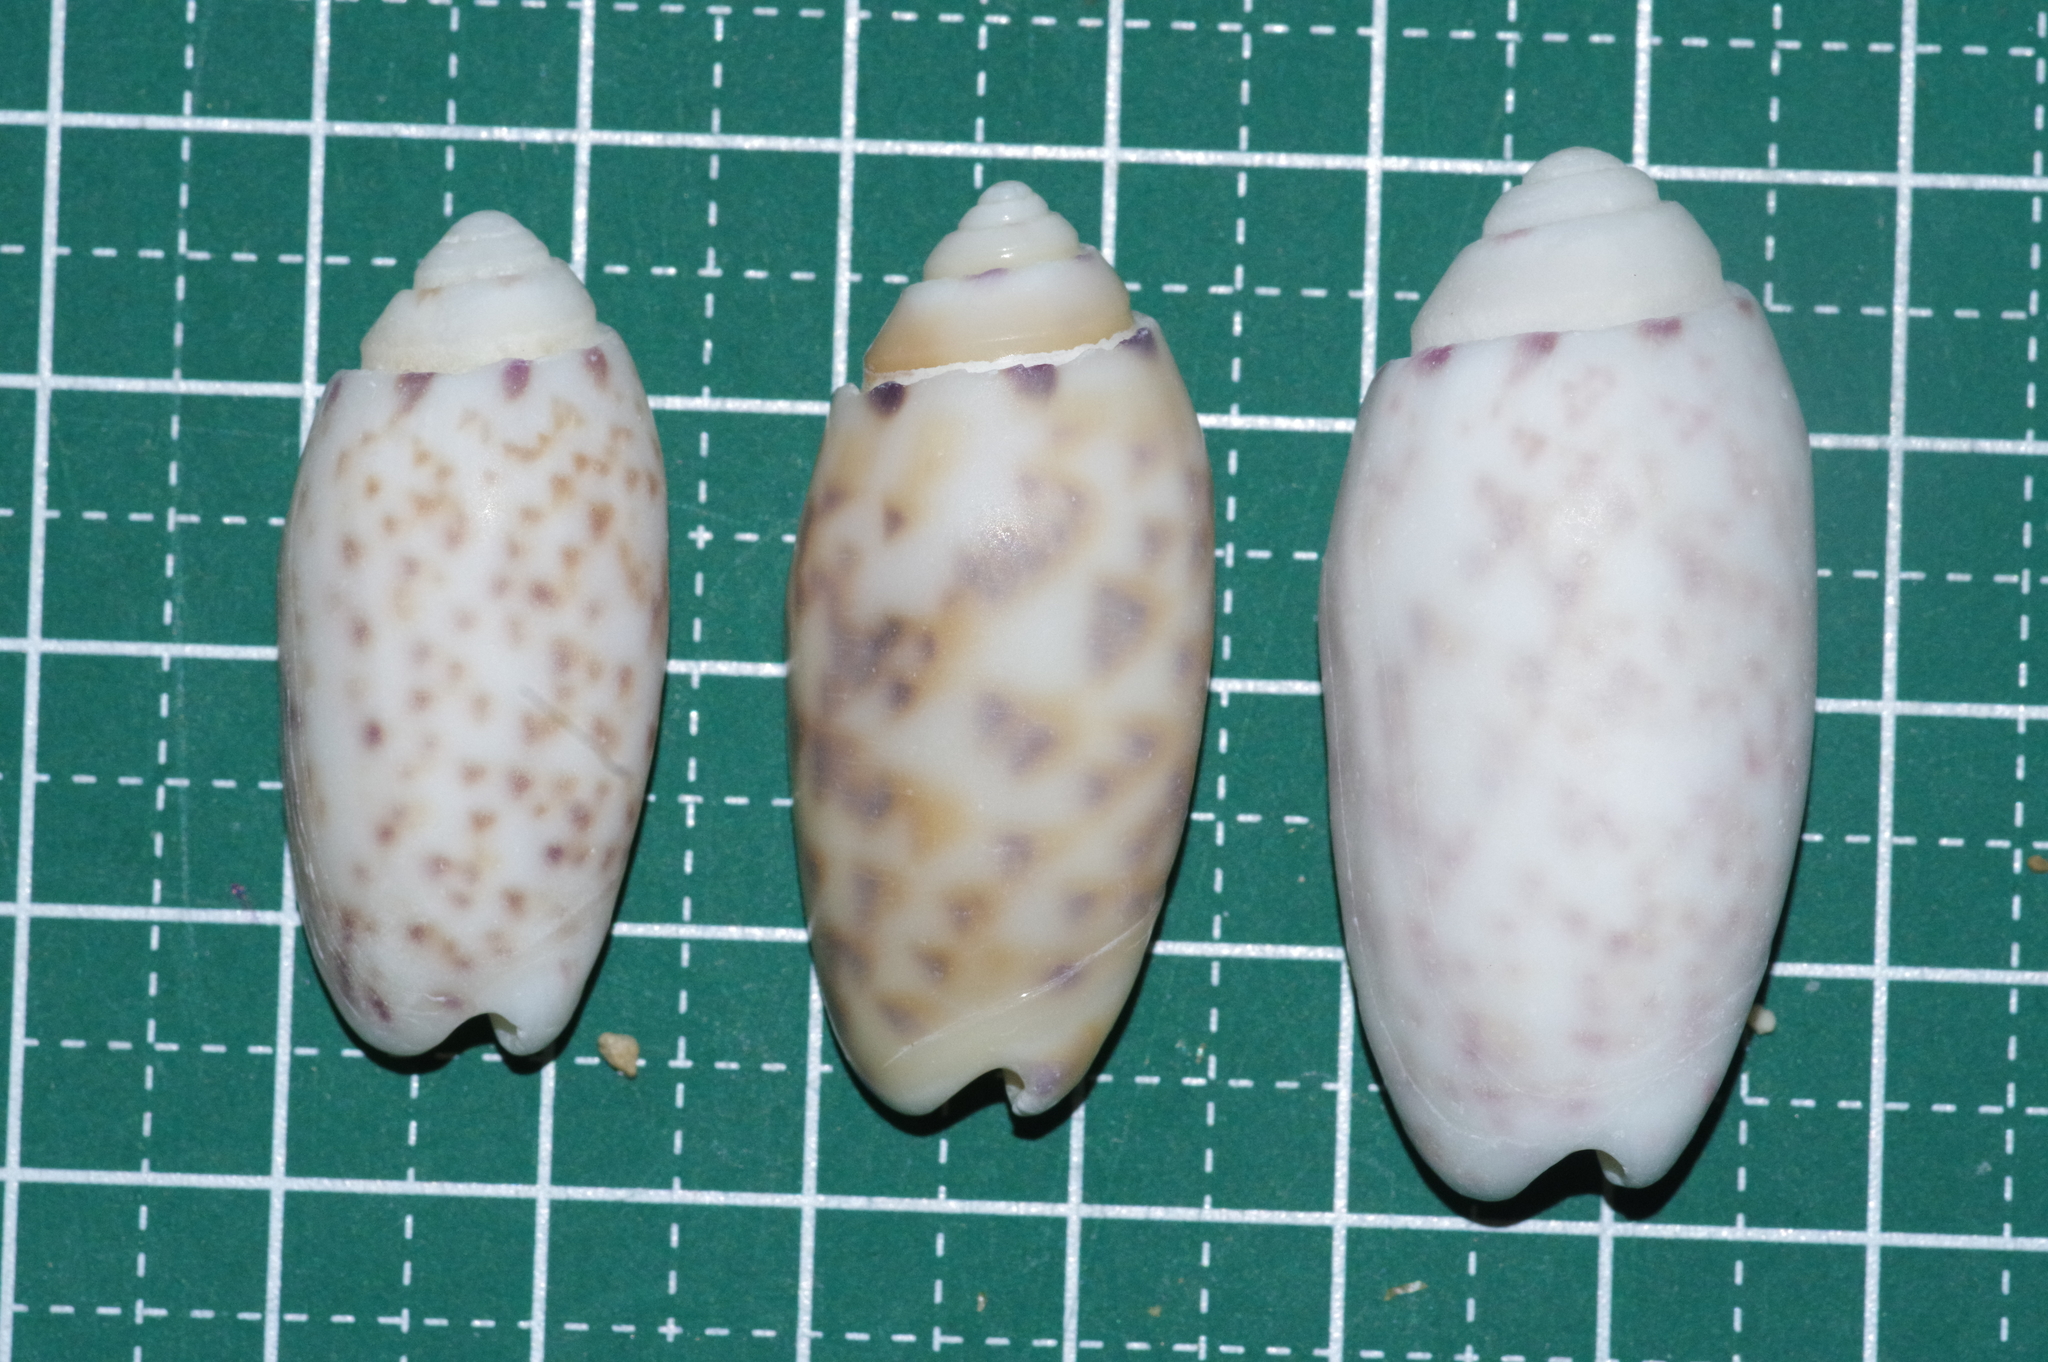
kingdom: Animalia
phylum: Mollusca
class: Gastropoda
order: Neogastropoda
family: Olividae
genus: Oliva
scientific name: Oliva amethystina
